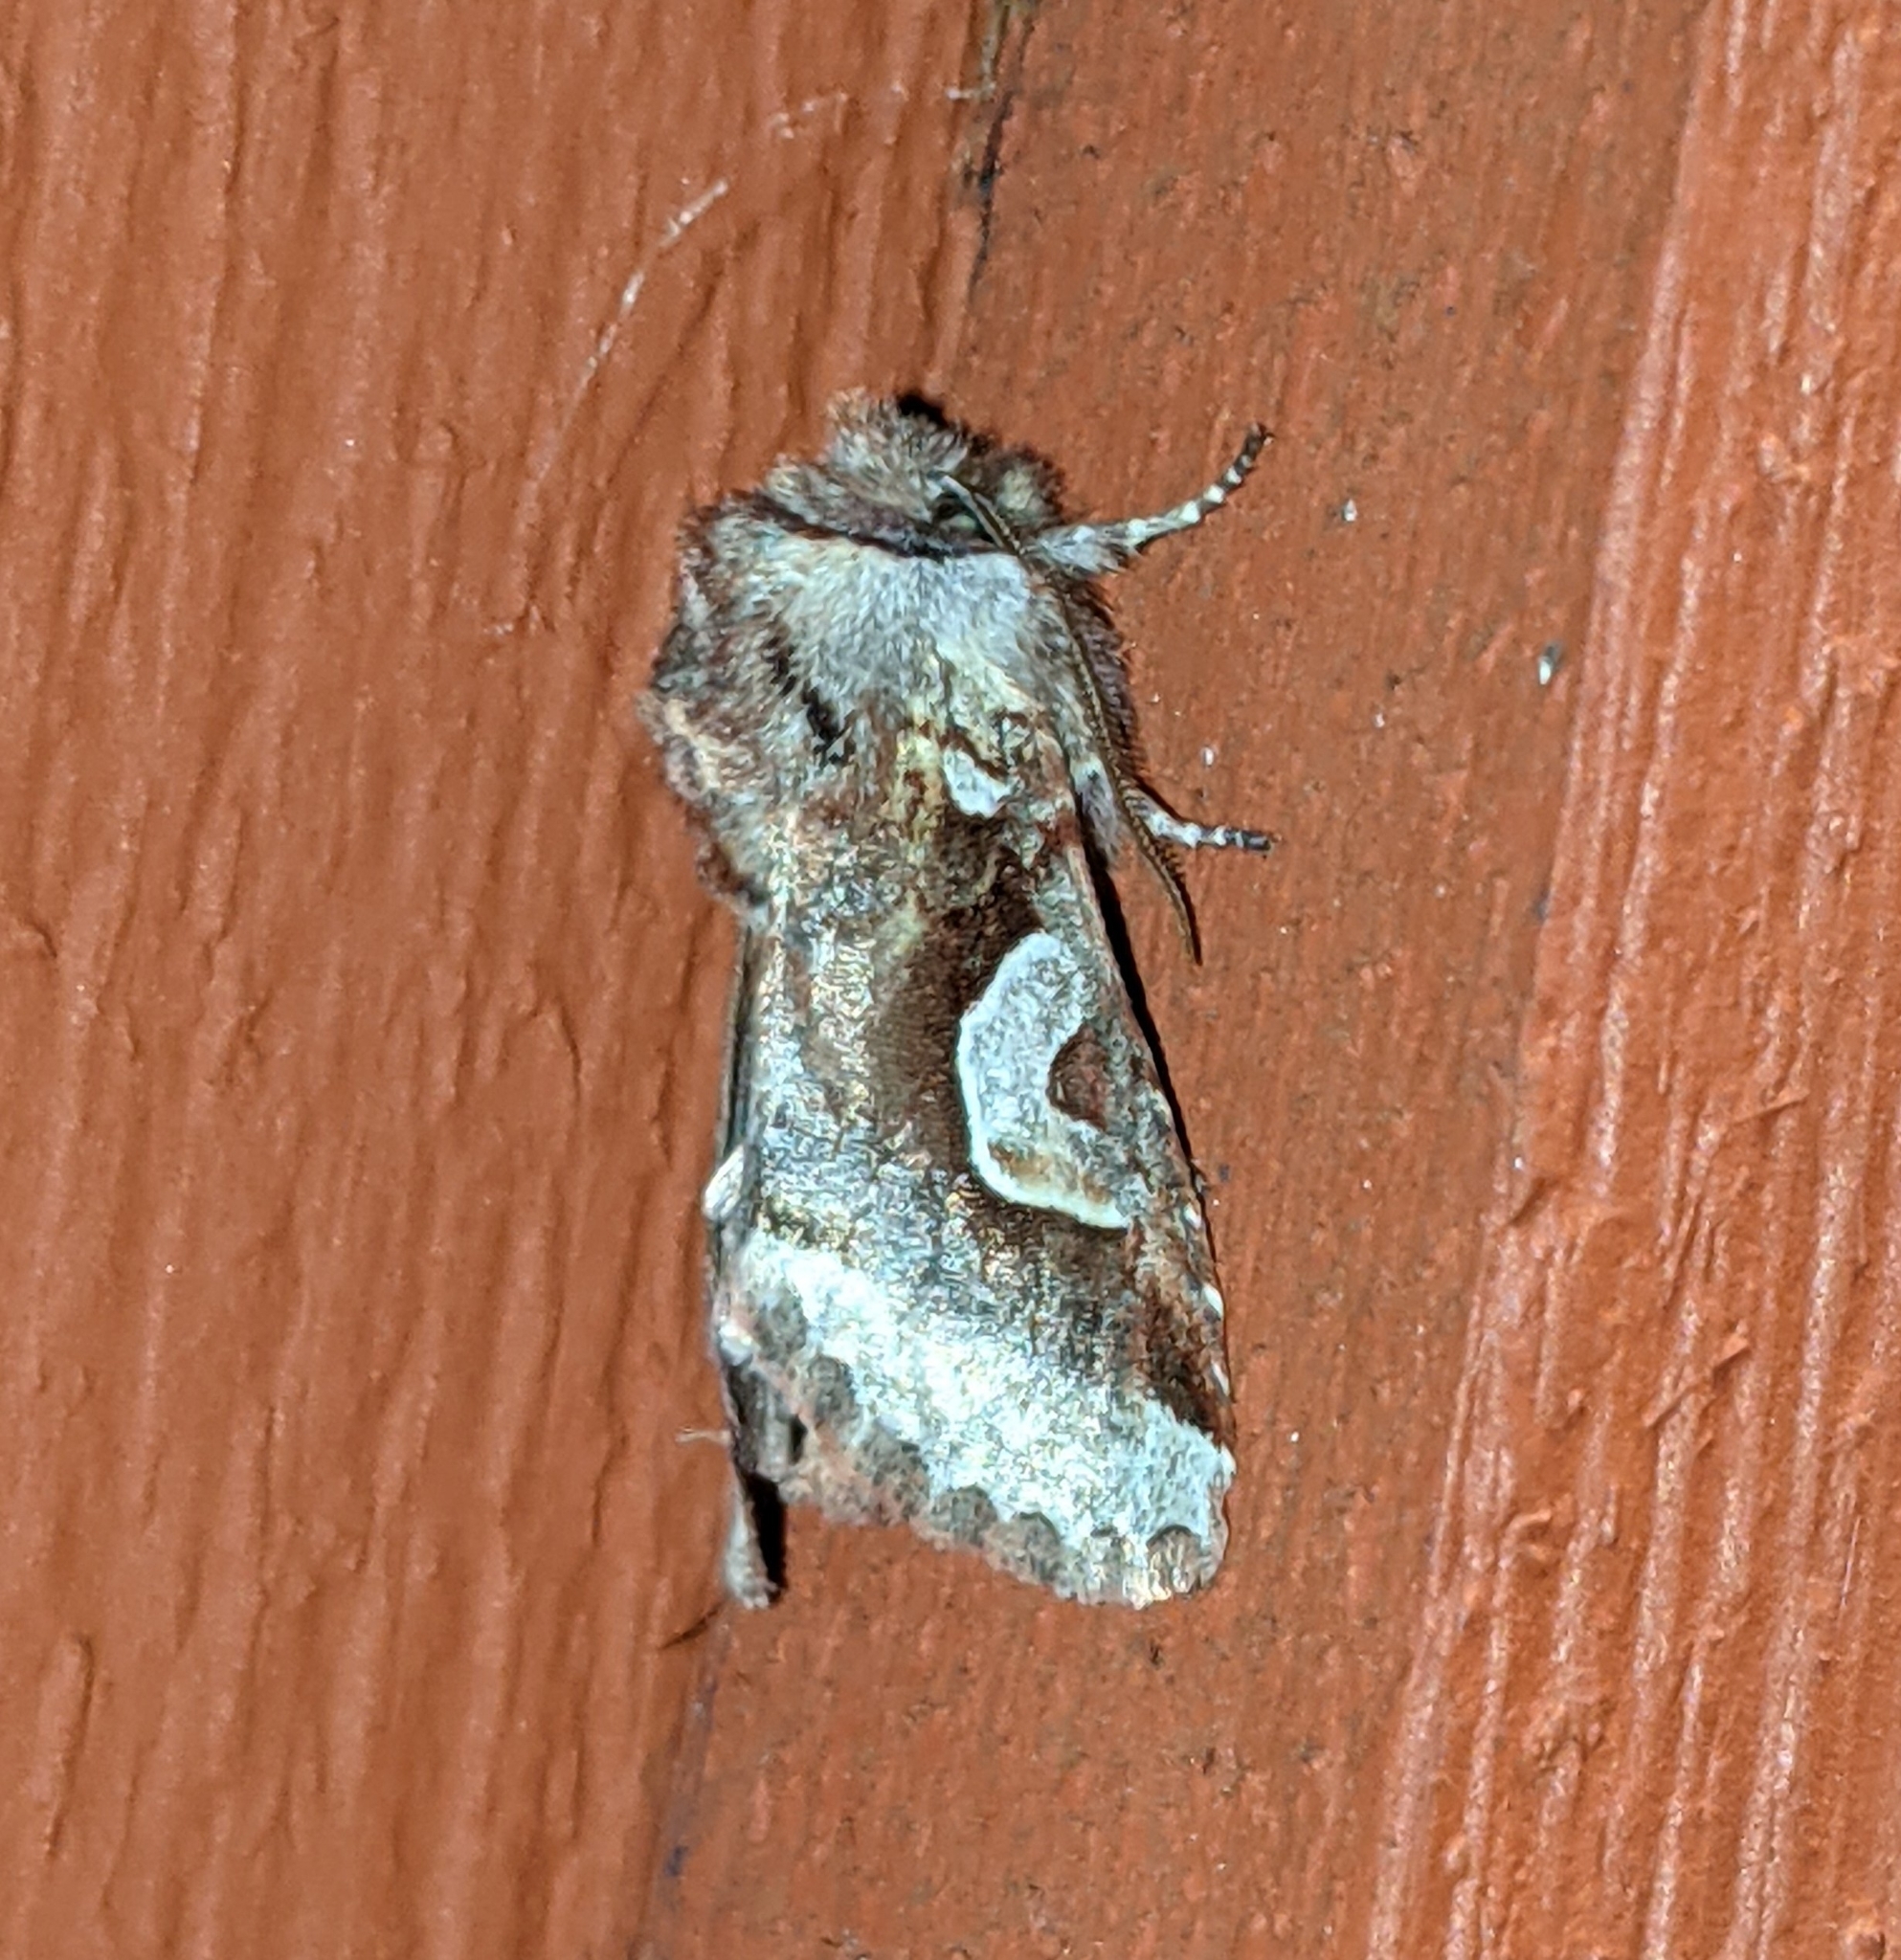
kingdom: Animalia
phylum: Arthropoda
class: Insecta
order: Lepidoptera
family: Noctuidae
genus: Stretchia
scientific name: Stretchia muricina
